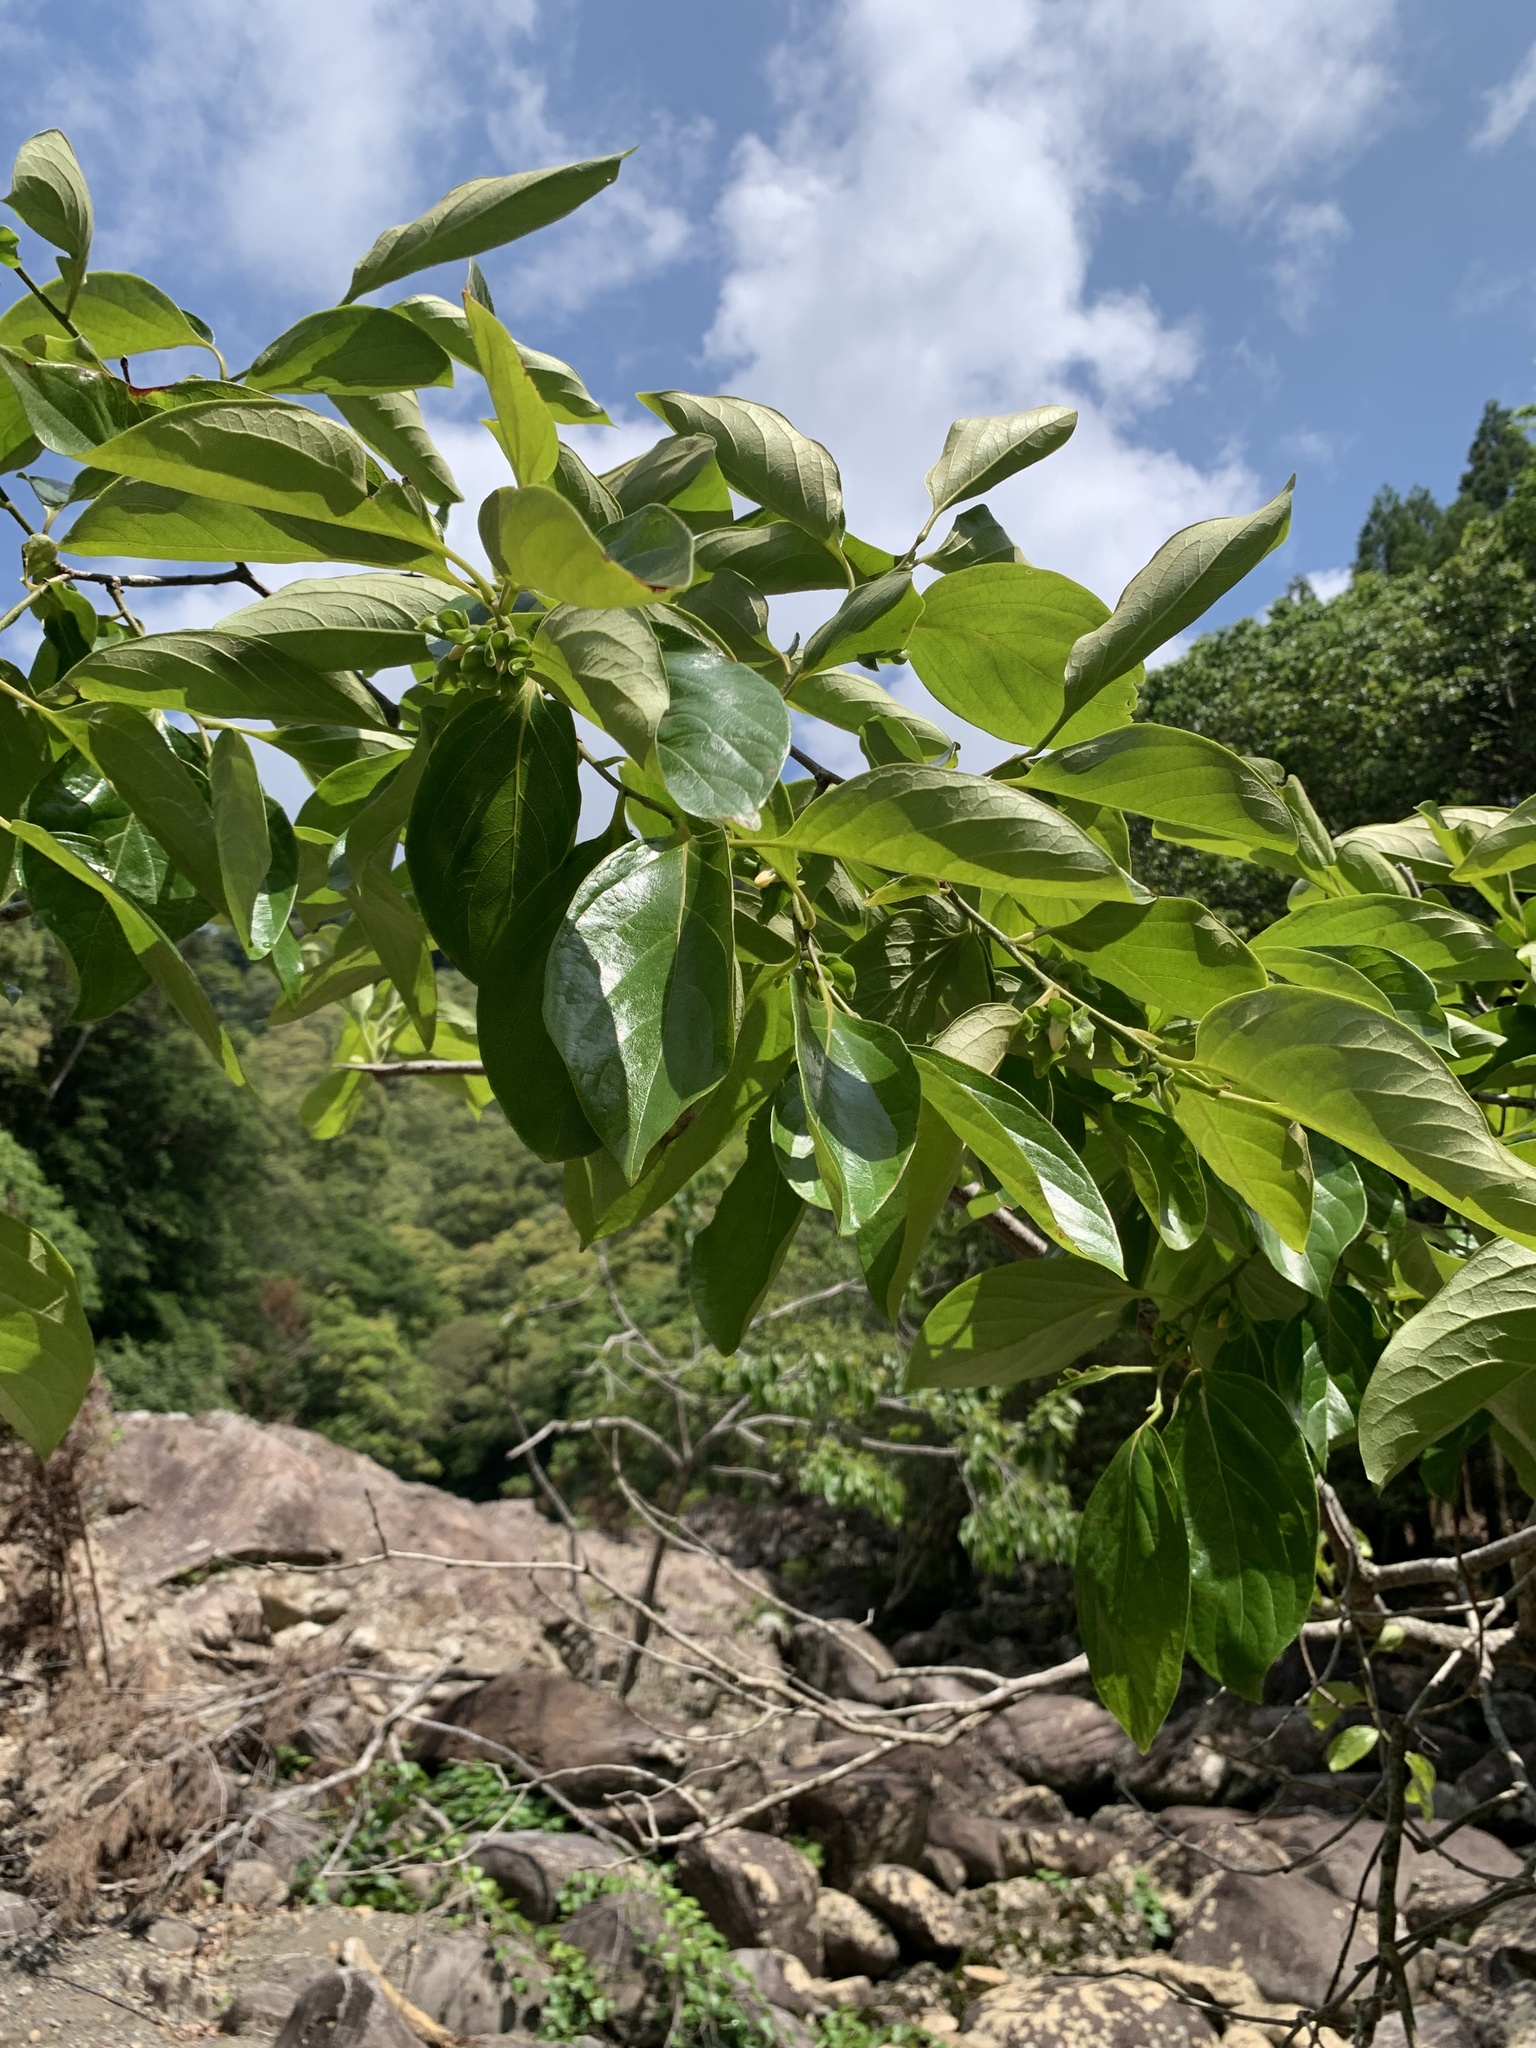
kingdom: Plantae
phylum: Tracheophyta
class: Magnoliopsida
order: Ericales
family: Ebenaceae
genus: Diospyros
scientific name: Diospyros kaki
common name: Persimmon
